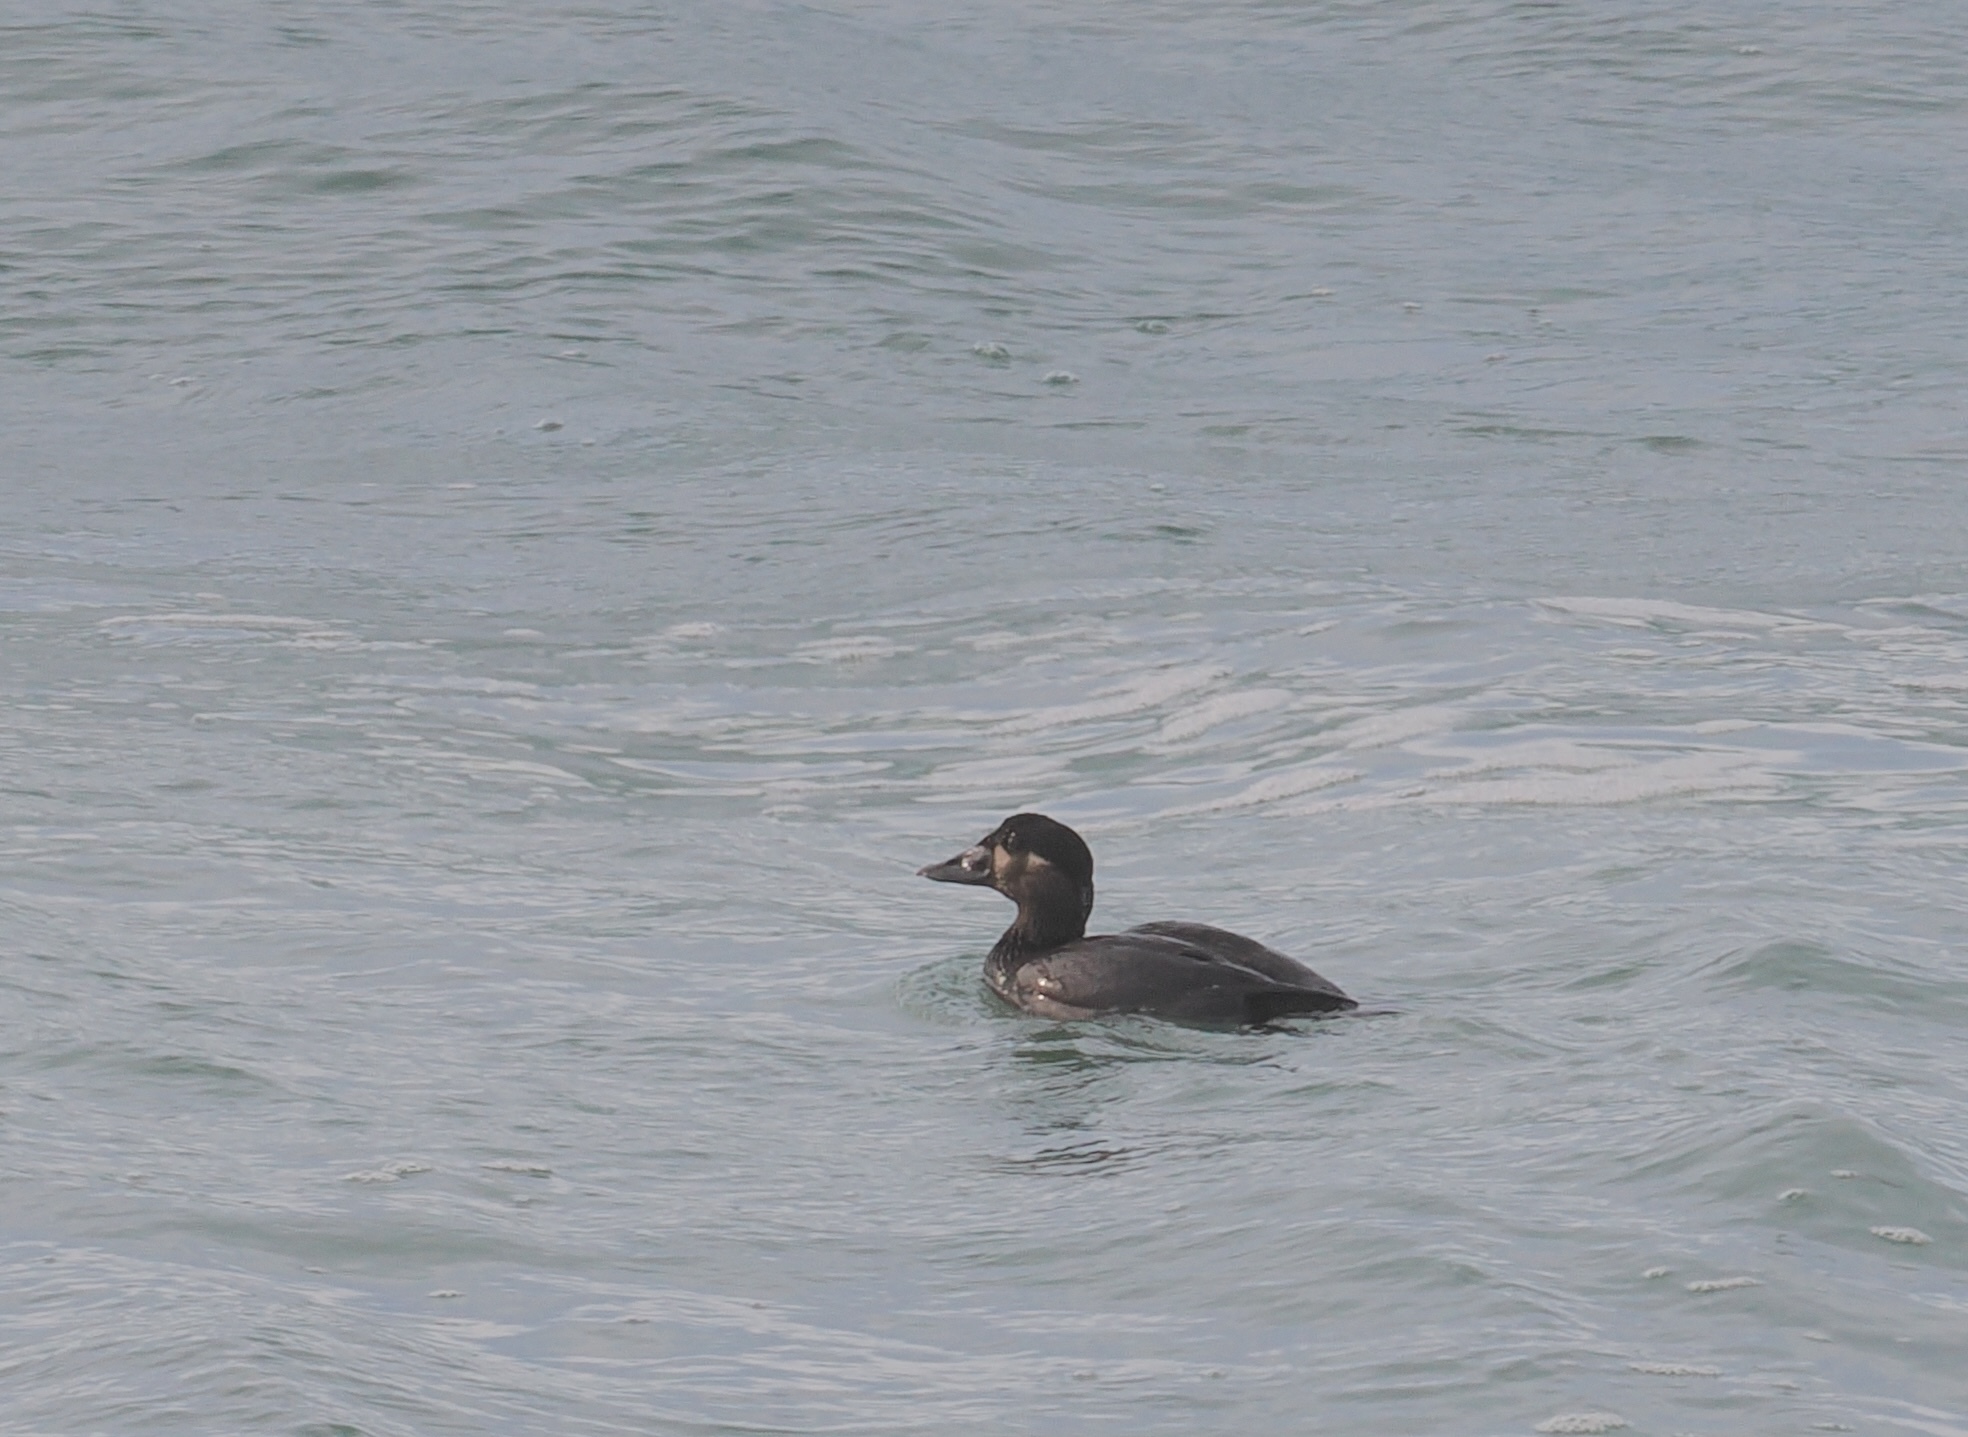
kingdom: Animalia
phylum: Chordata
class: Aves
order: Anseriformes
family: Anatidae
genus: Melanitta
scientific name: Melanitta perspicillata
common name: Surf scoter
